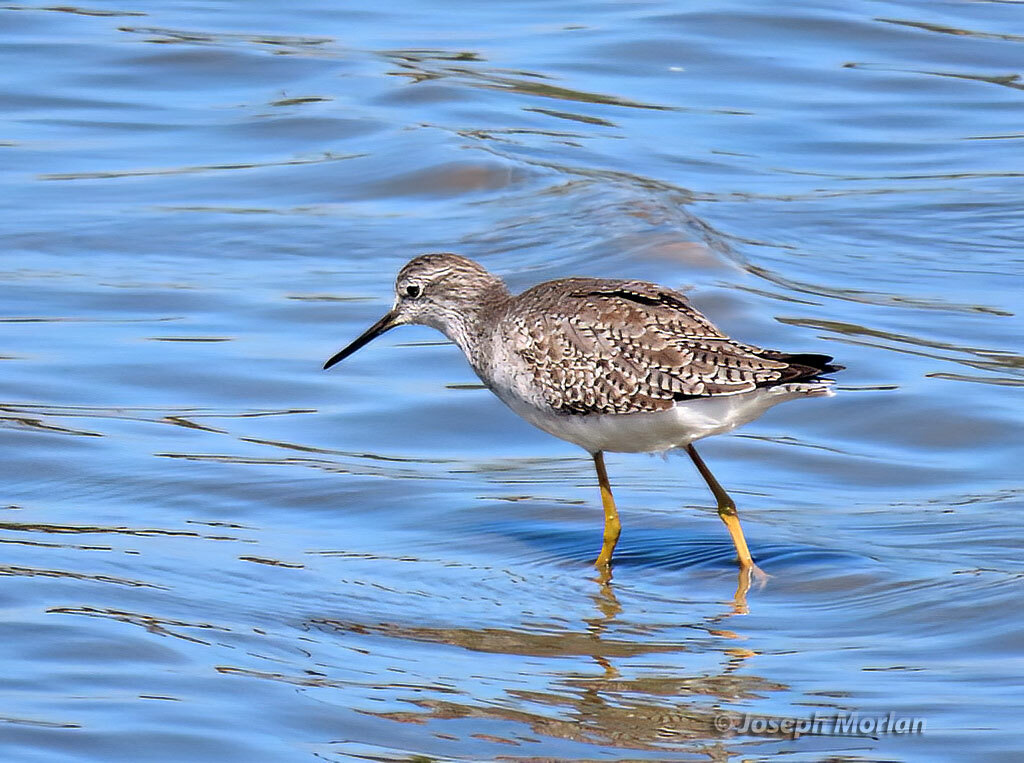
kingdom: Animalia
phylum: Chordata
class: Aves
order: Charadriiformes
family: Scolopacidae
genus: Tringa
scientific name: Tringa flavipes
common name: Lesser yellowlegs
